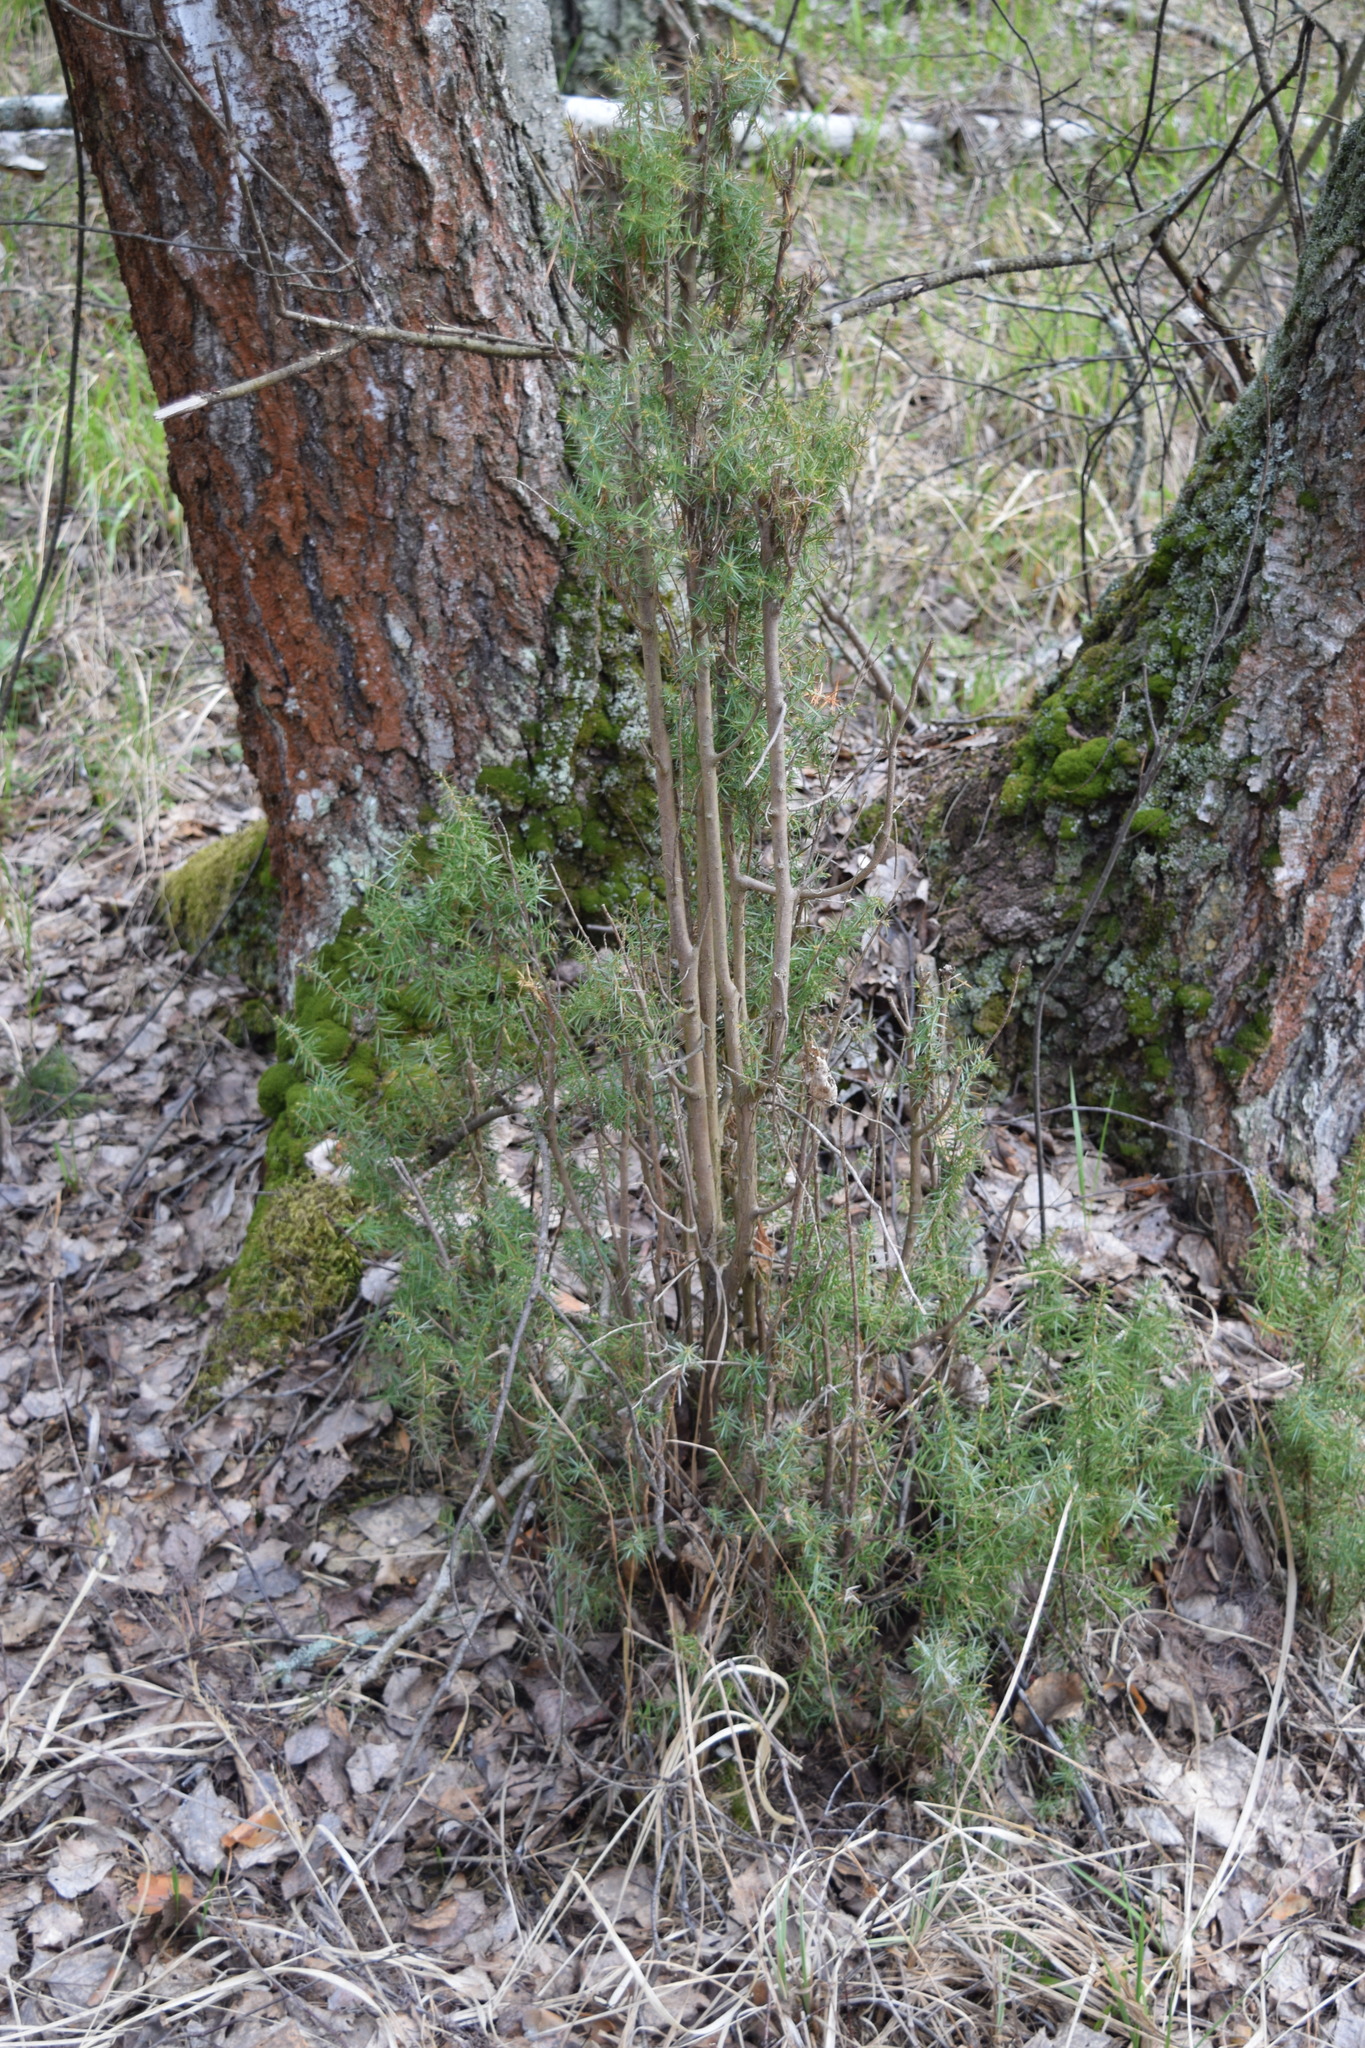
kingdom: Plantae
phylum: Tracheophyta
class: Pinopsida
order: Pinales
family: Cupressaceae
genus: Juniperus
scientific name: Juniperus communis
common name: Common juniper
